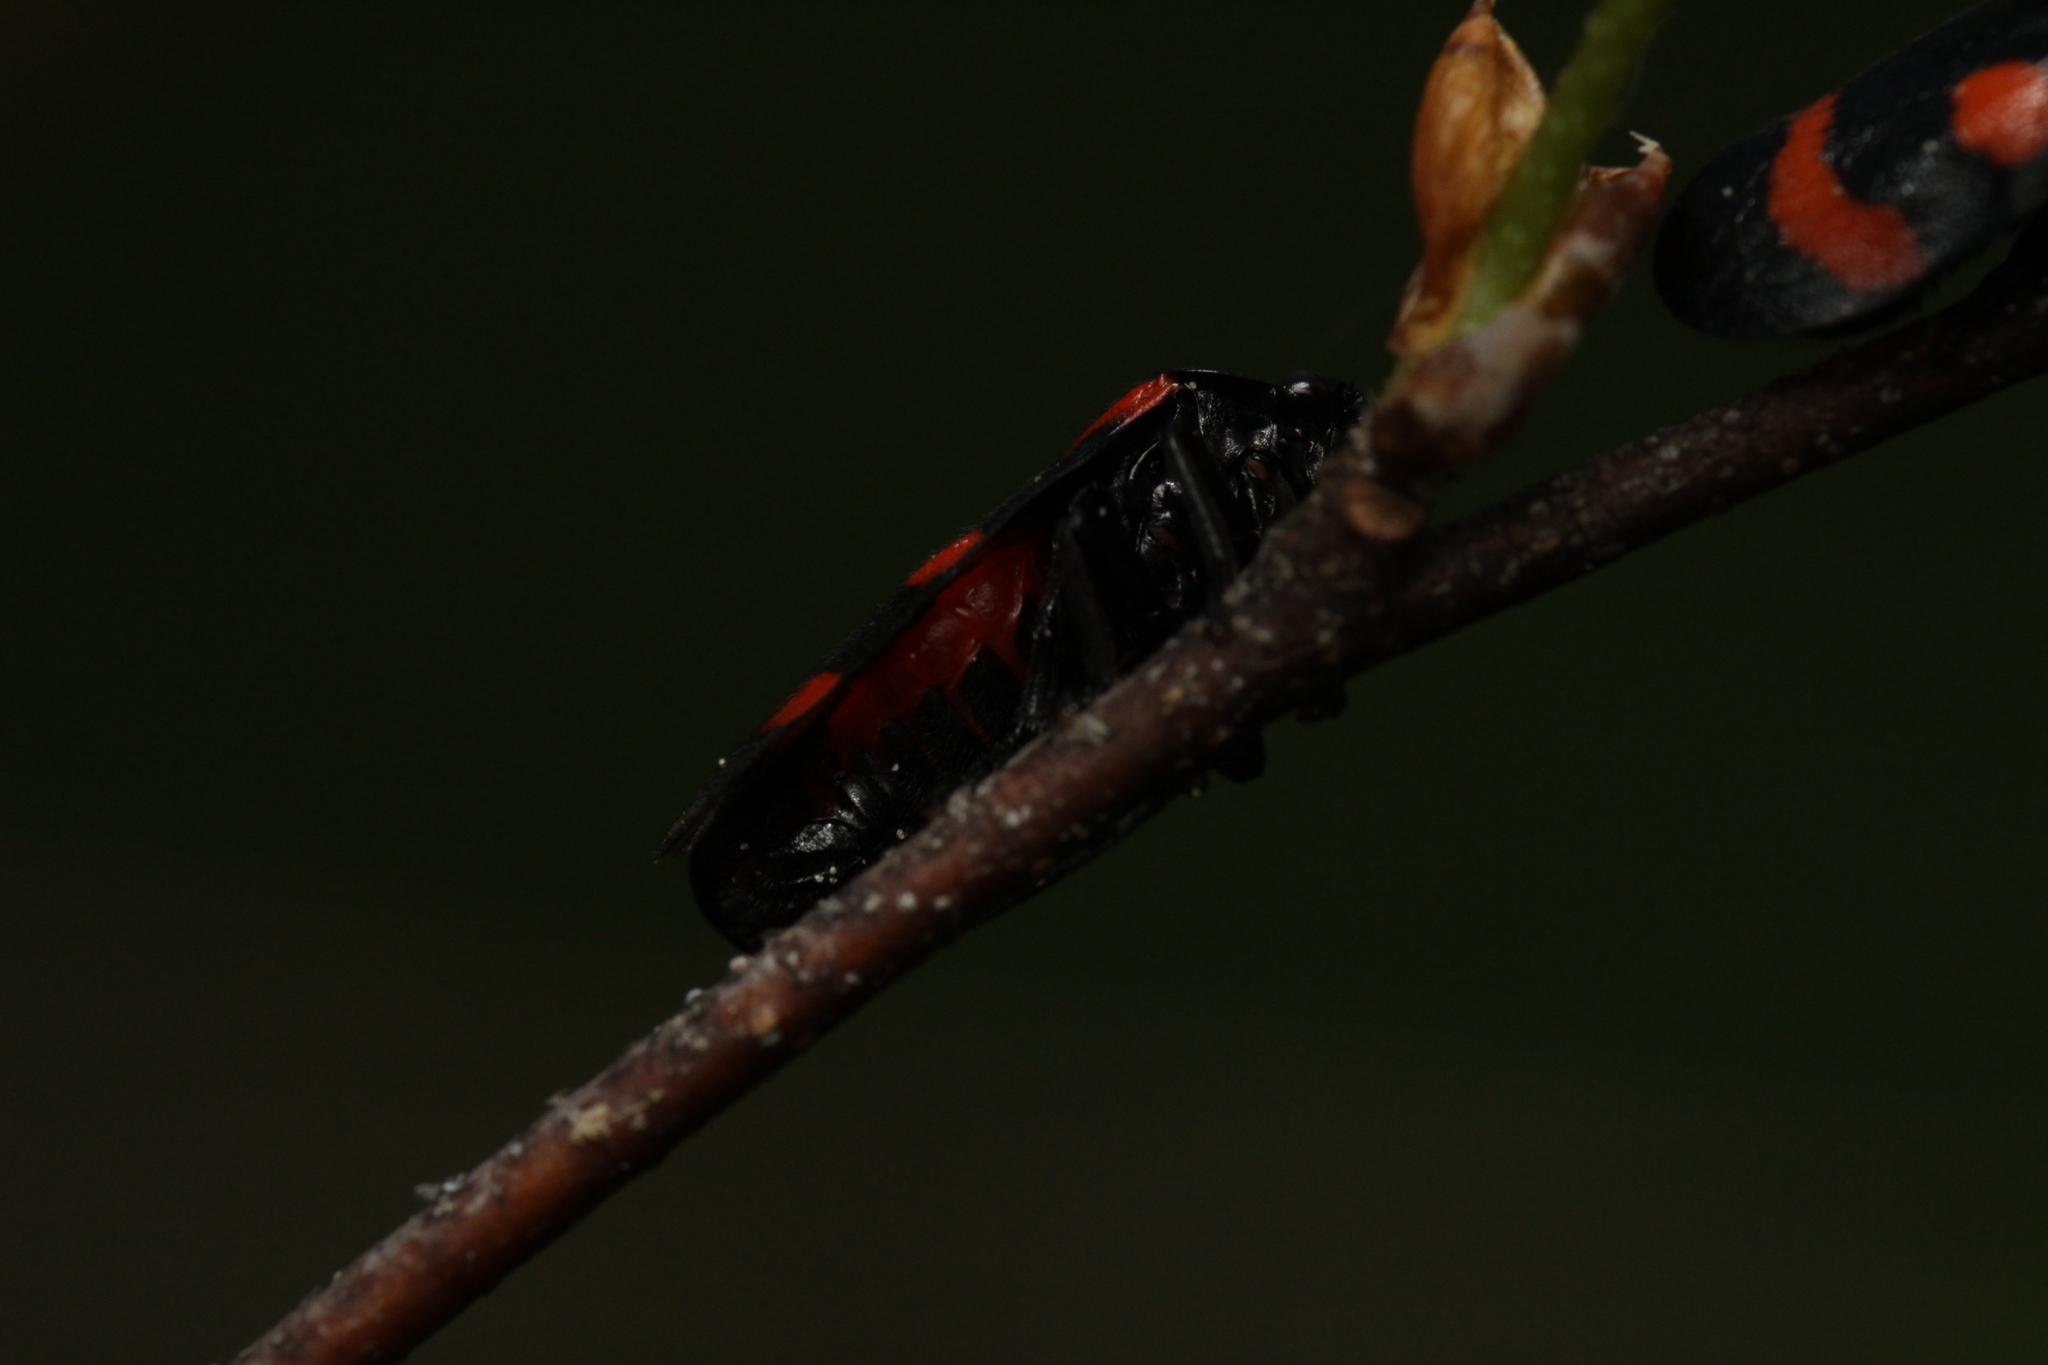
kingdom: Animalia
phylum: Arthropoda
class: Insecta
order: Hemiptera
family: Cercopidae
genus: Cercopis
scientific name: Cercopis arcuata
